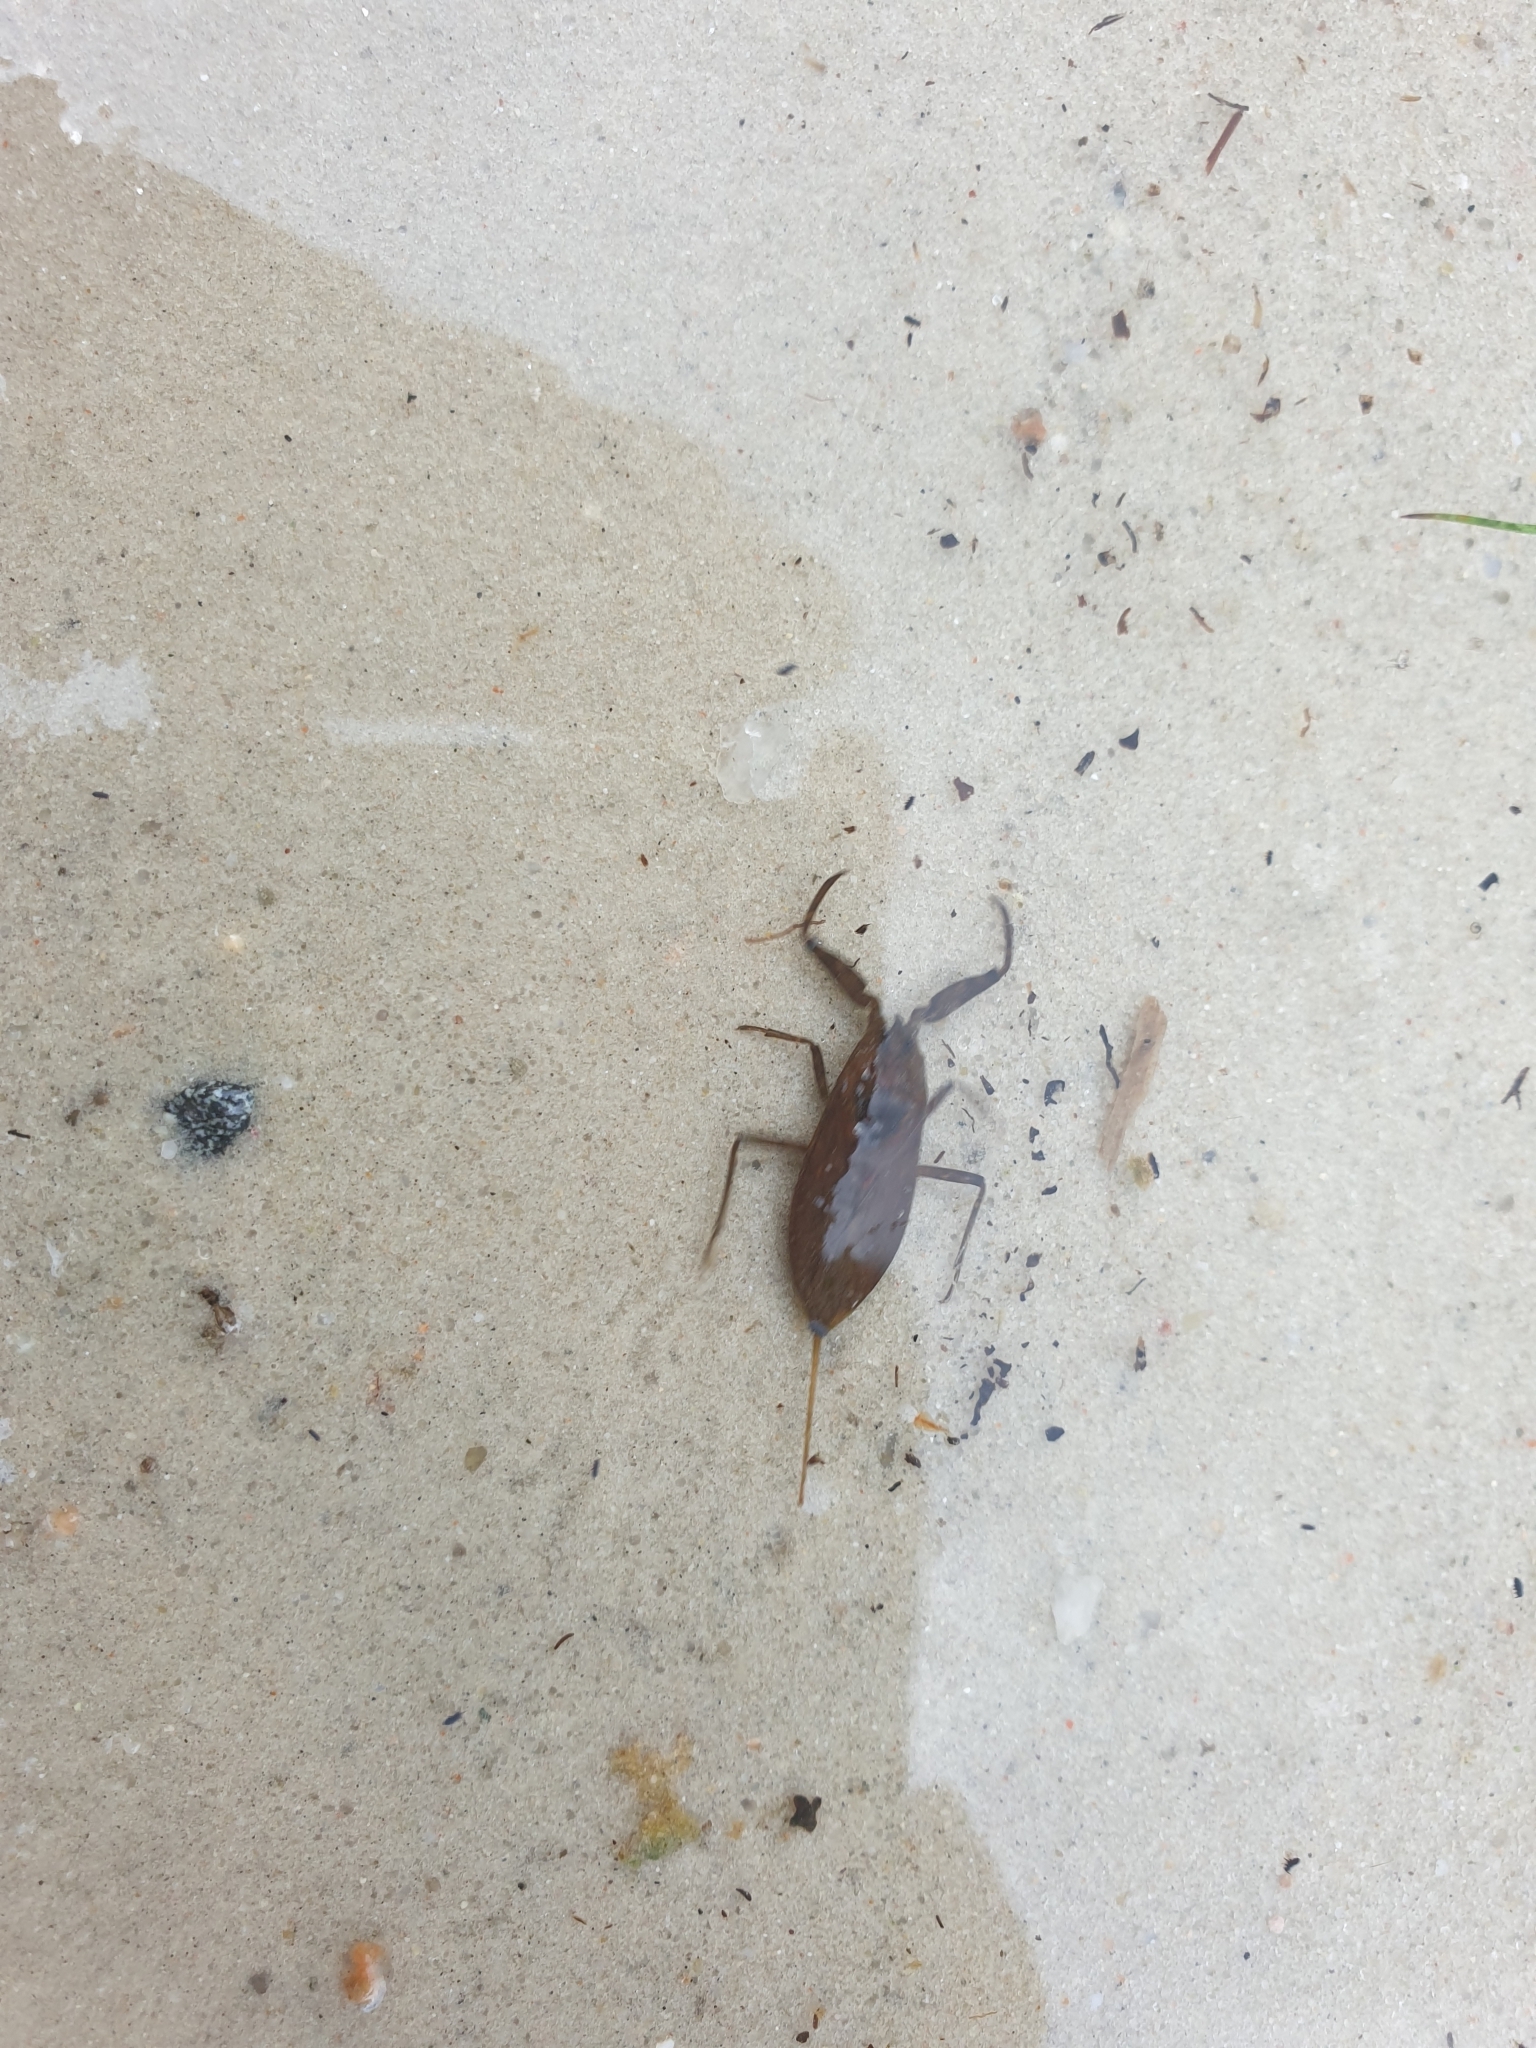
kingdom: Animalia
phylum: Arthropoda
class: Insecta
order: Hemiptera
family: Nepidae
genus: Nepa
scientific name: Nepa cinerea
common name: Water scorpion
